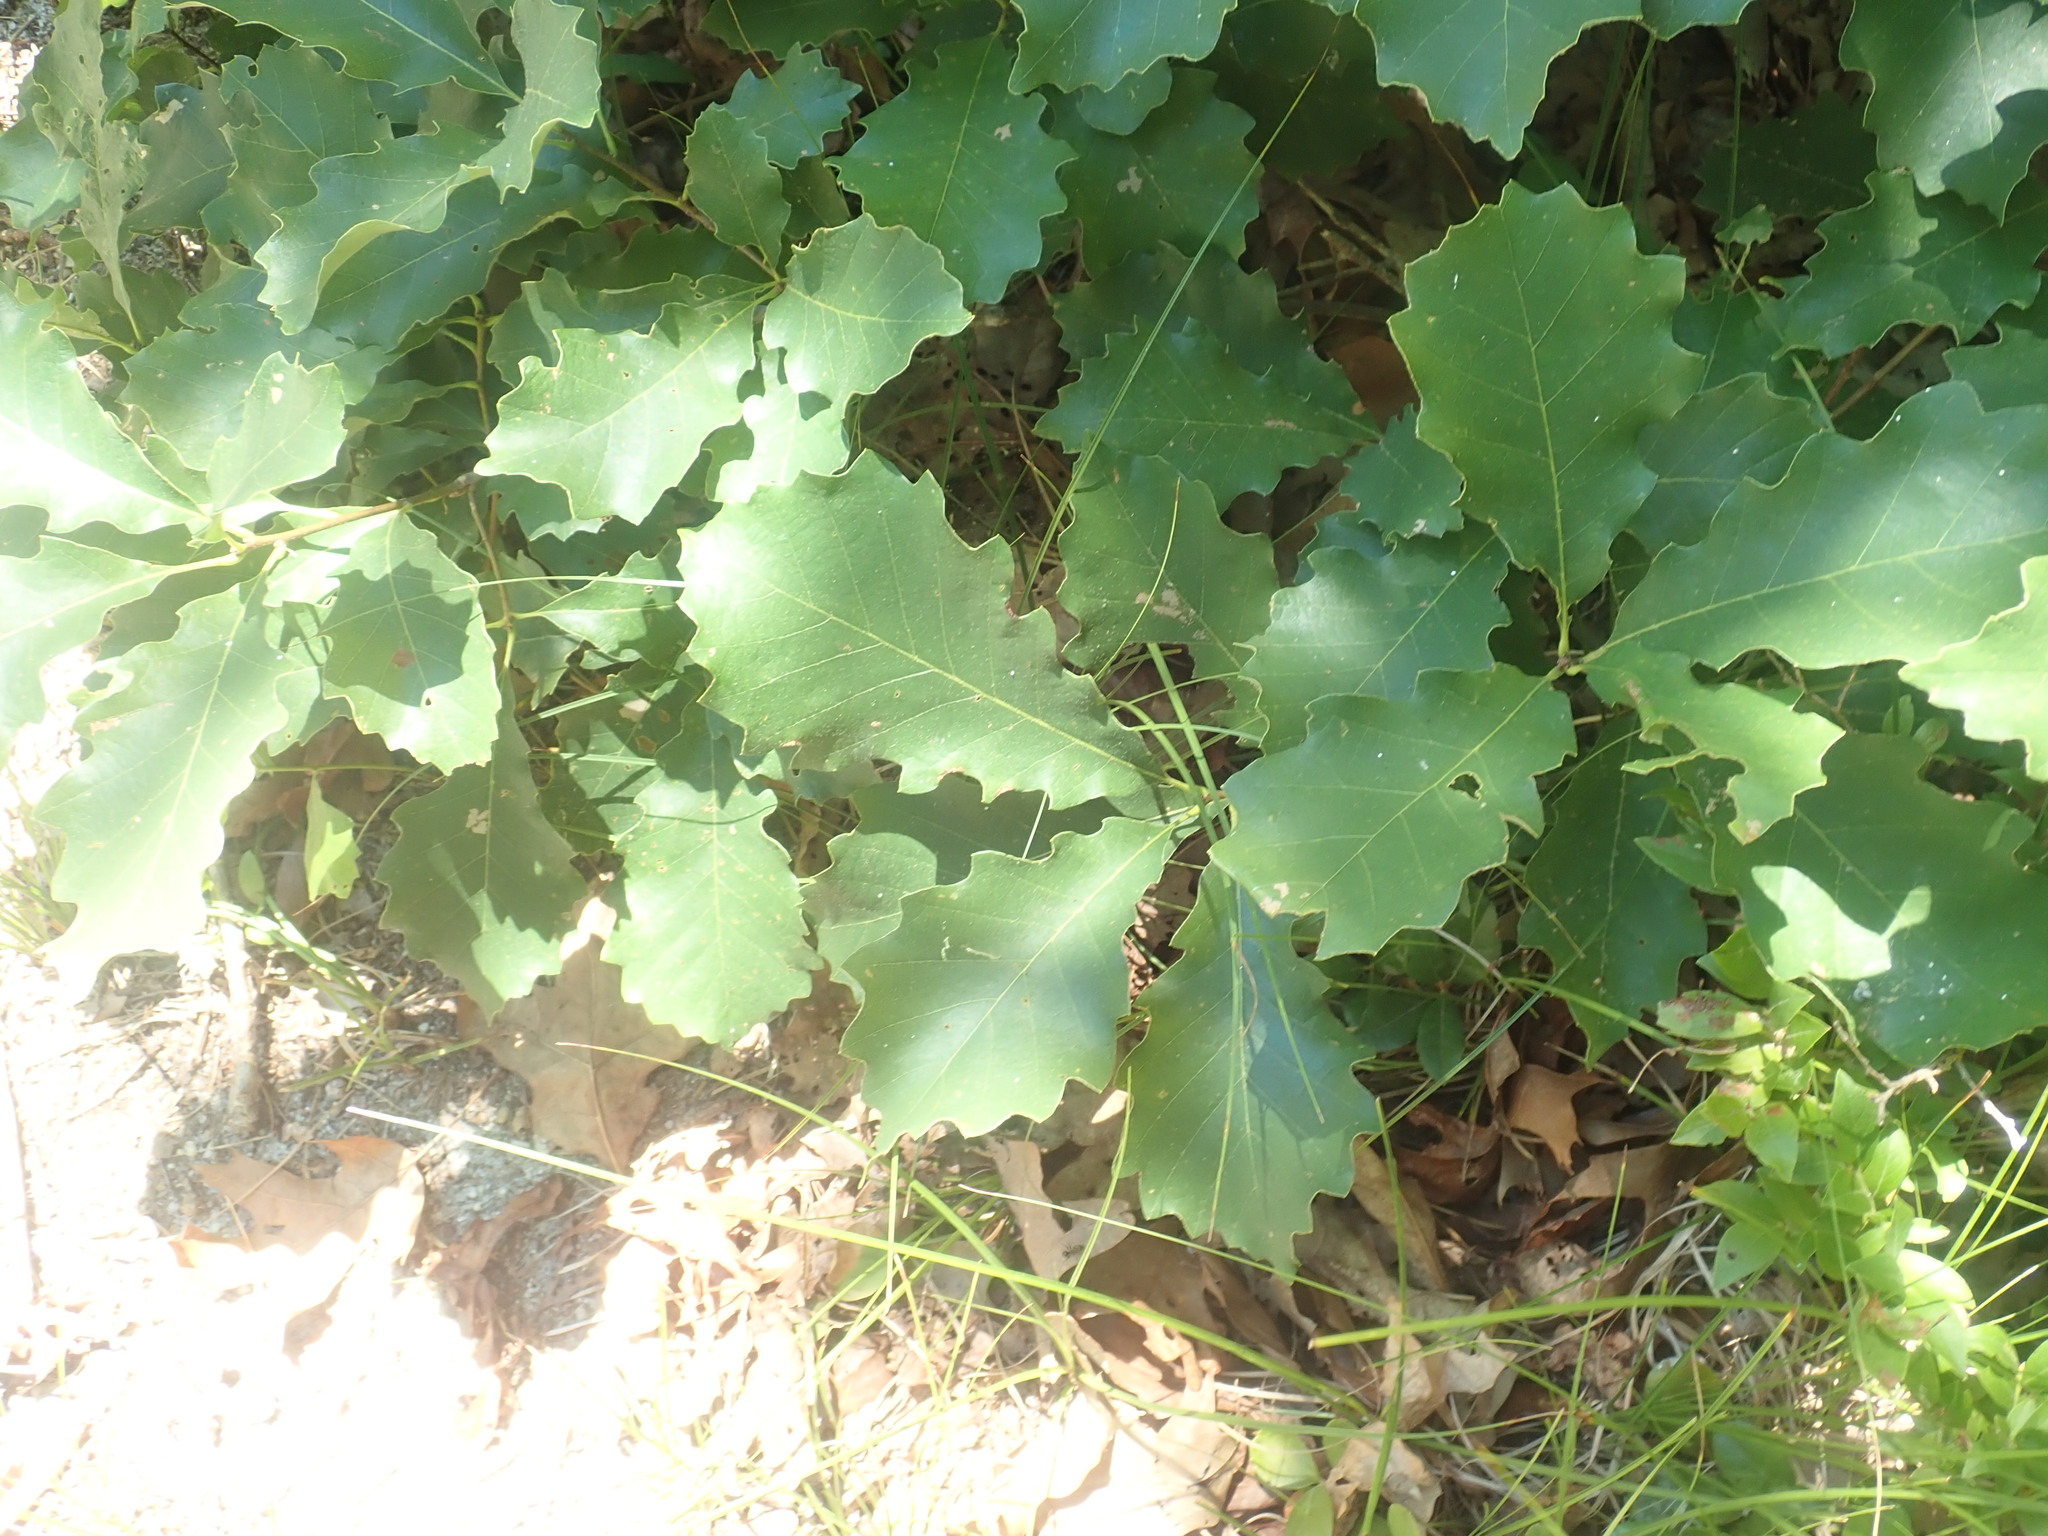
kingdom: Plantae
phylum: Tracheophyta
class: Magnoliopsida
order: Fagales
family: Fagaceae
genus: Quercus
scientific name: Quercus prinoides
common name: Dwarf chinkapin oak
